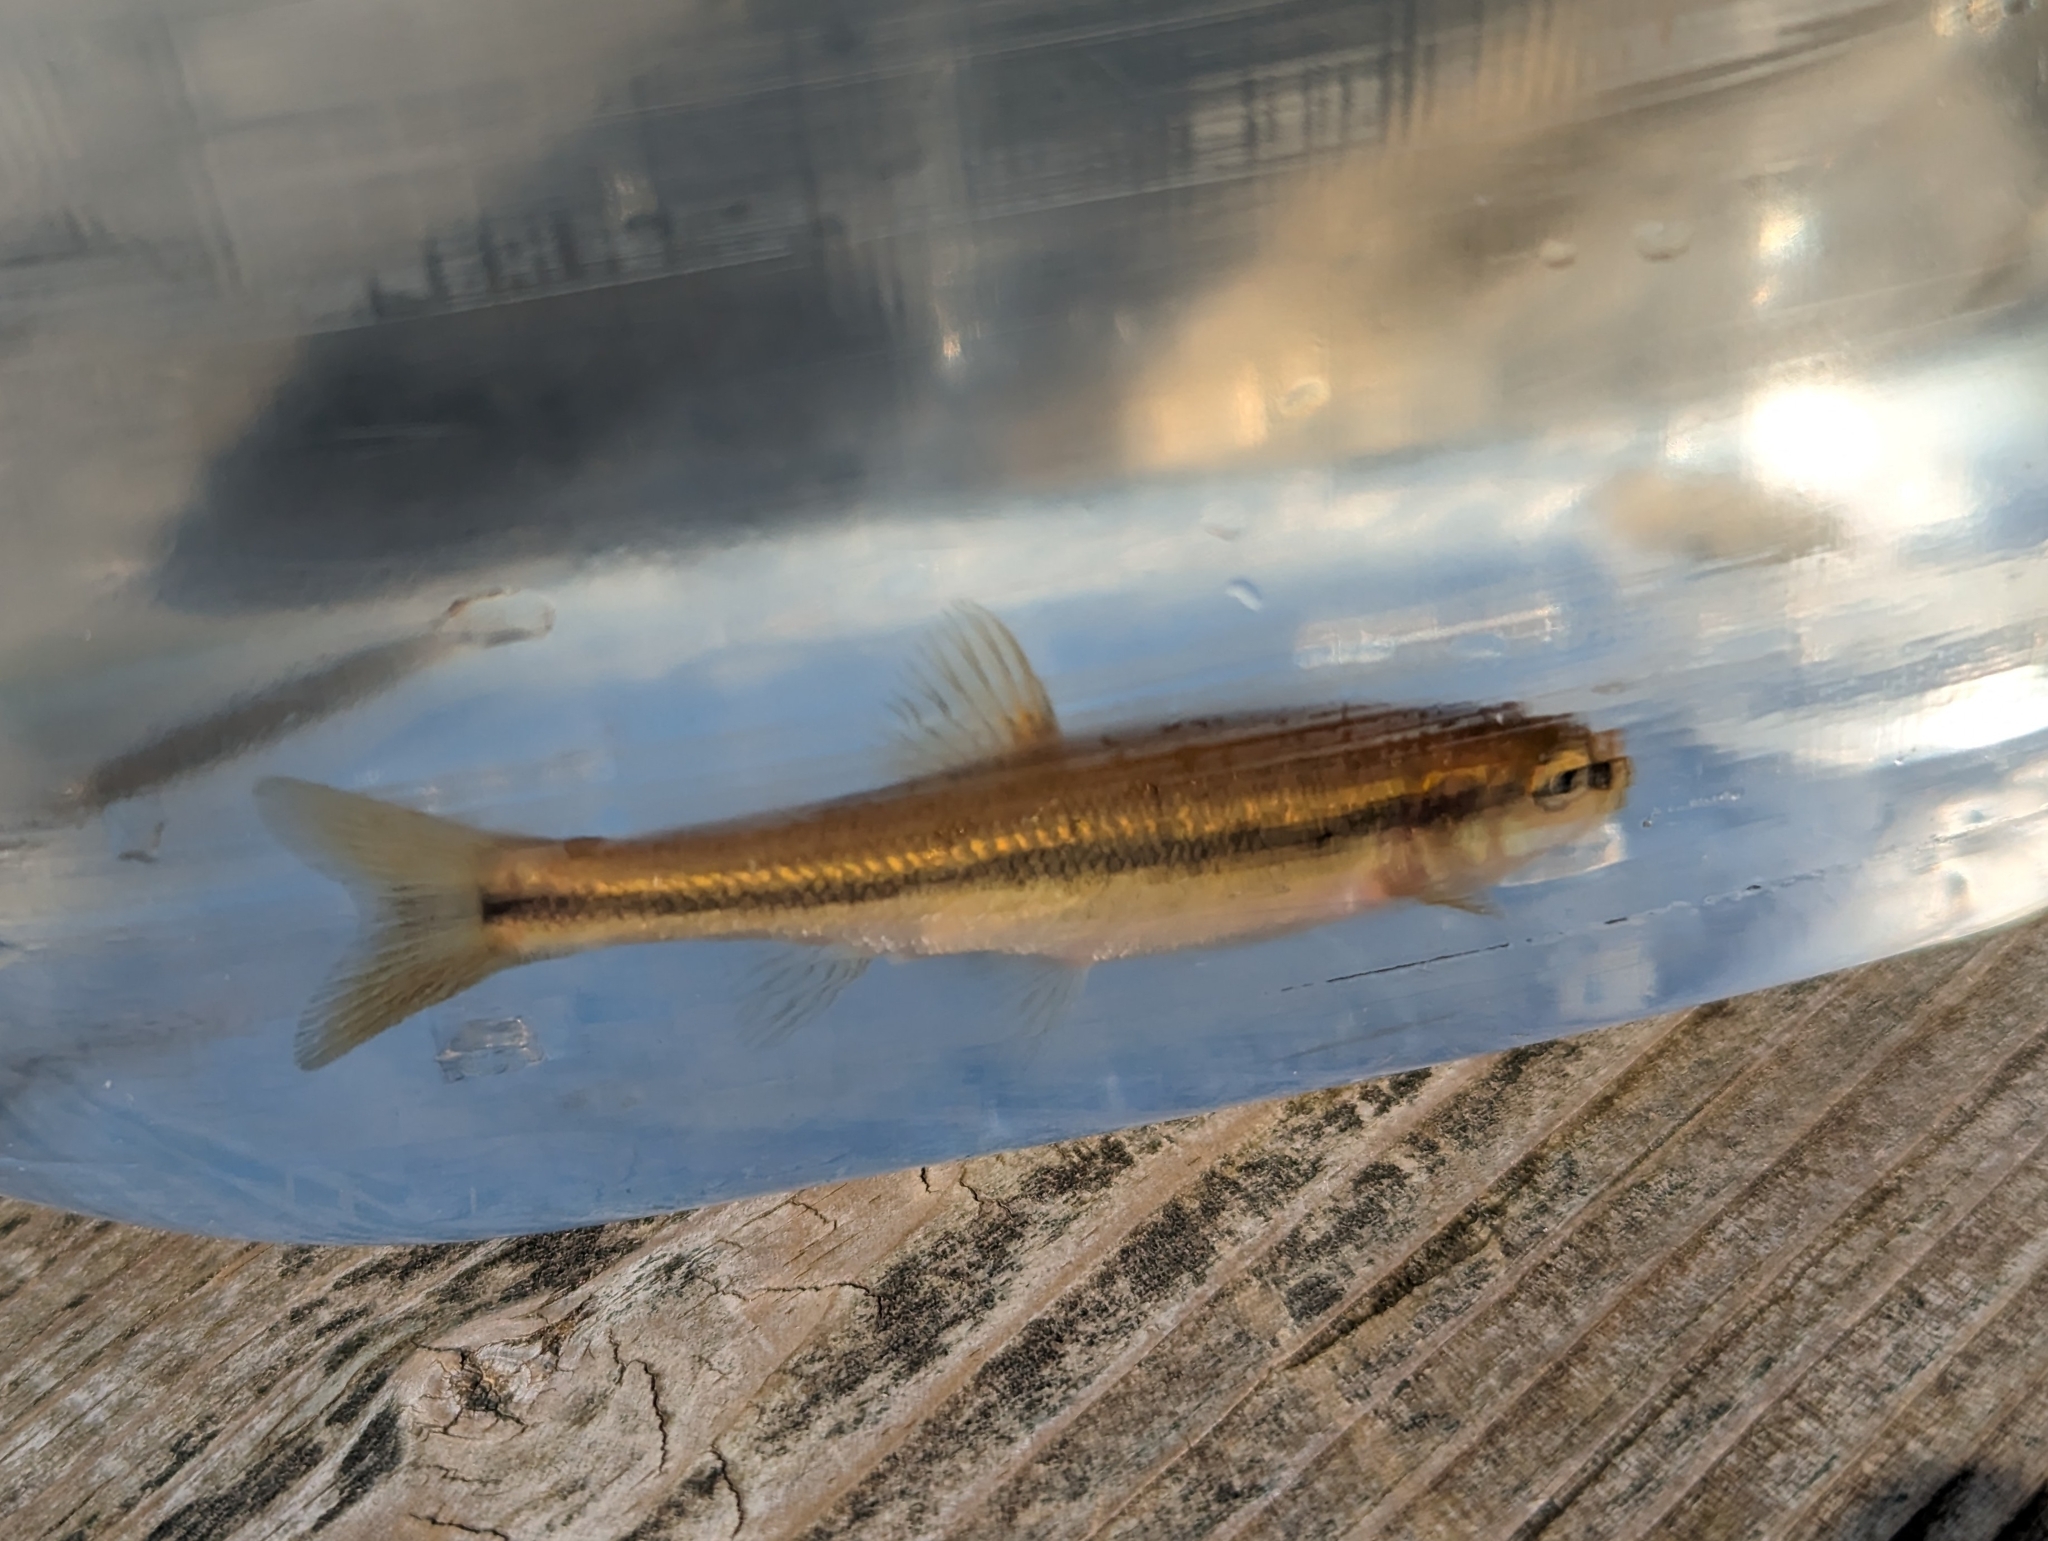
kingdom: Animalia
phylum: Chordata
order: Cypriniformes
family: Cyprinidae
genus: Semotilus
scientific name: Semotilus atromaculatus
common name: Creek chub
